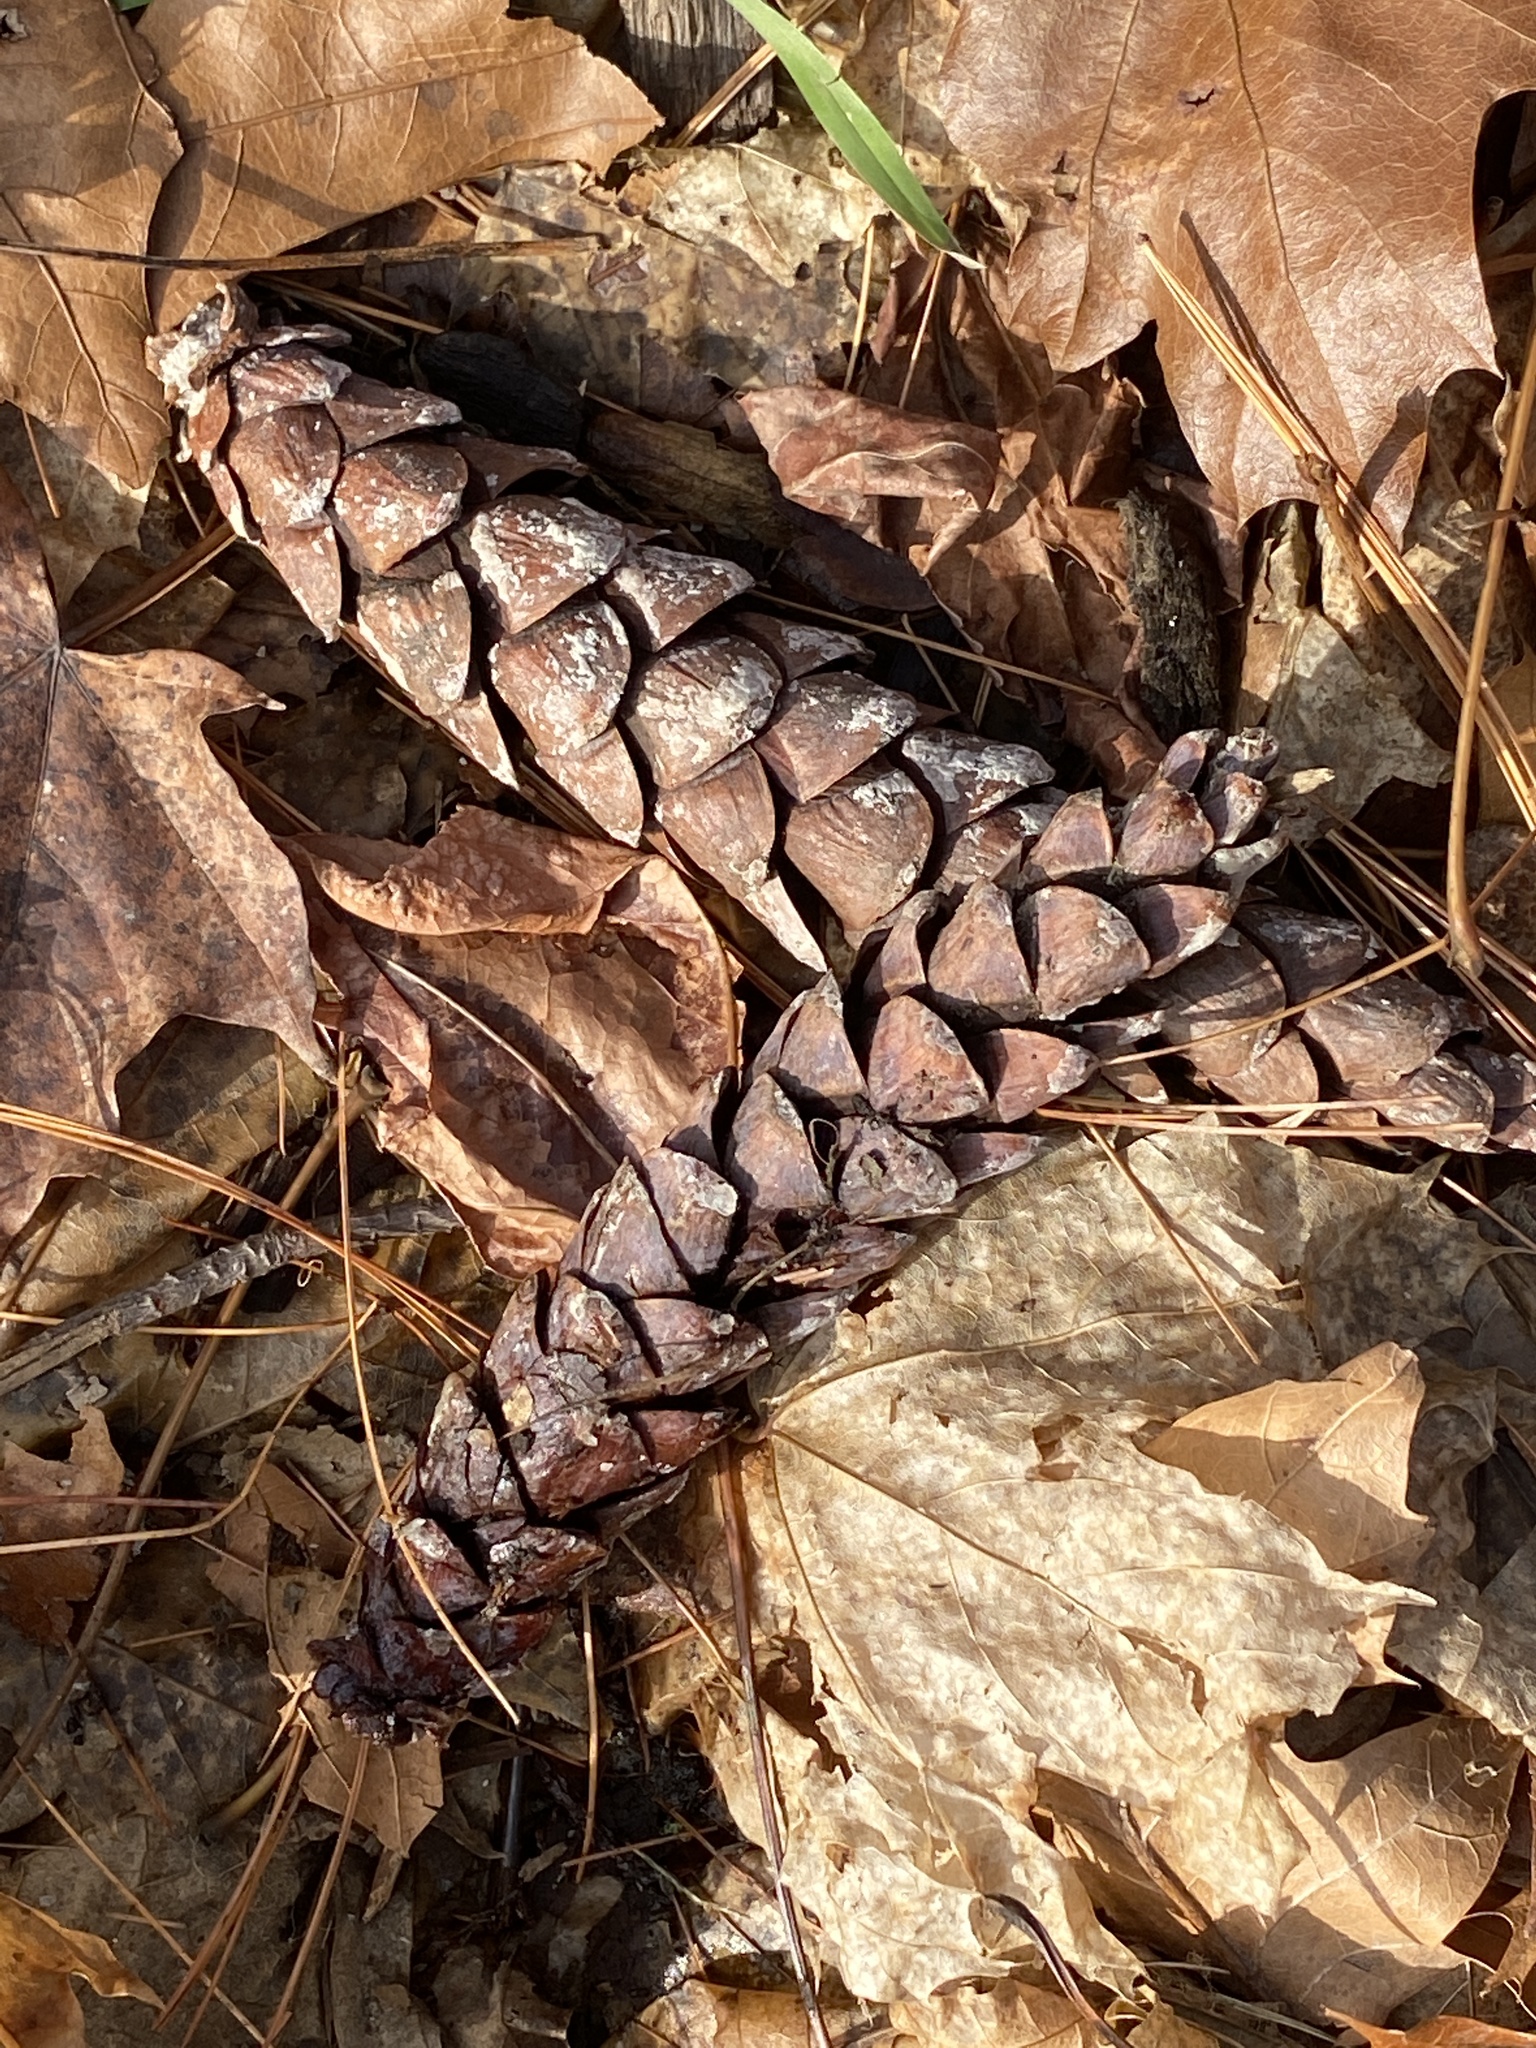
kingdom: Plantae
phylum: Tracheophyta
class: Pinopsida
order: Pinales
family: Pinaceae
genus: Pinus
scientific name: Pinus strobus
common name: Weymouth pine
